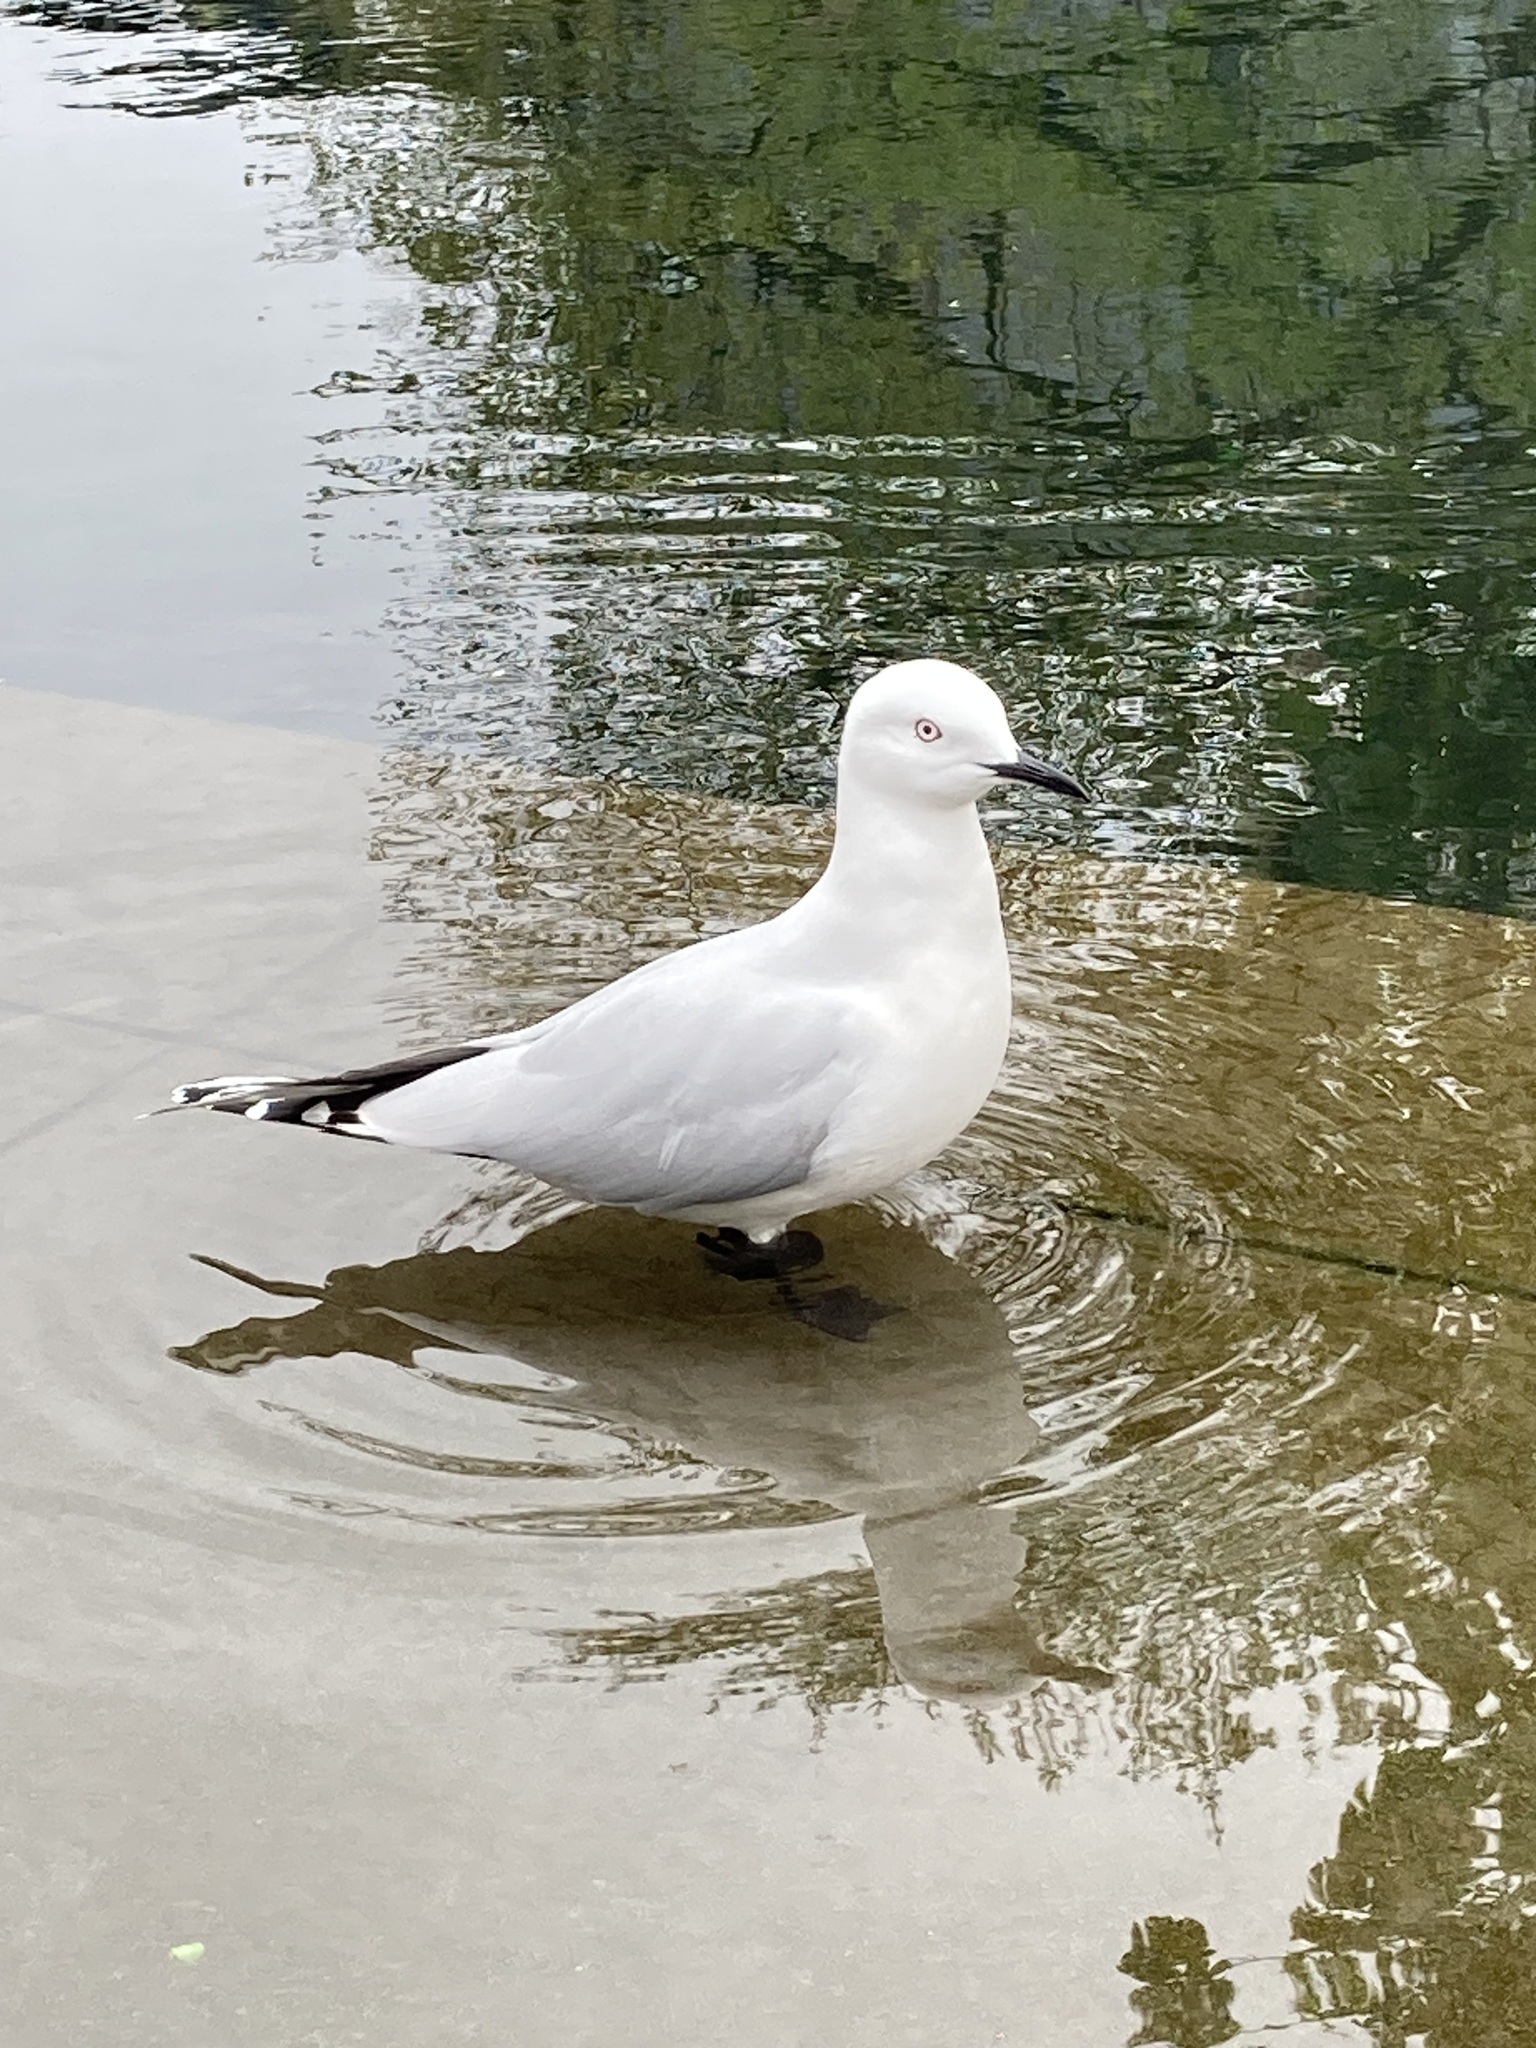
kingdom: Animalia
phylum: Chordata
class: Aves
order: Charadriiformes
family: Laridae
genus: Chroicocephalus
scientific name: Chroicocephalus bulleri
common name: Black-billed gull
